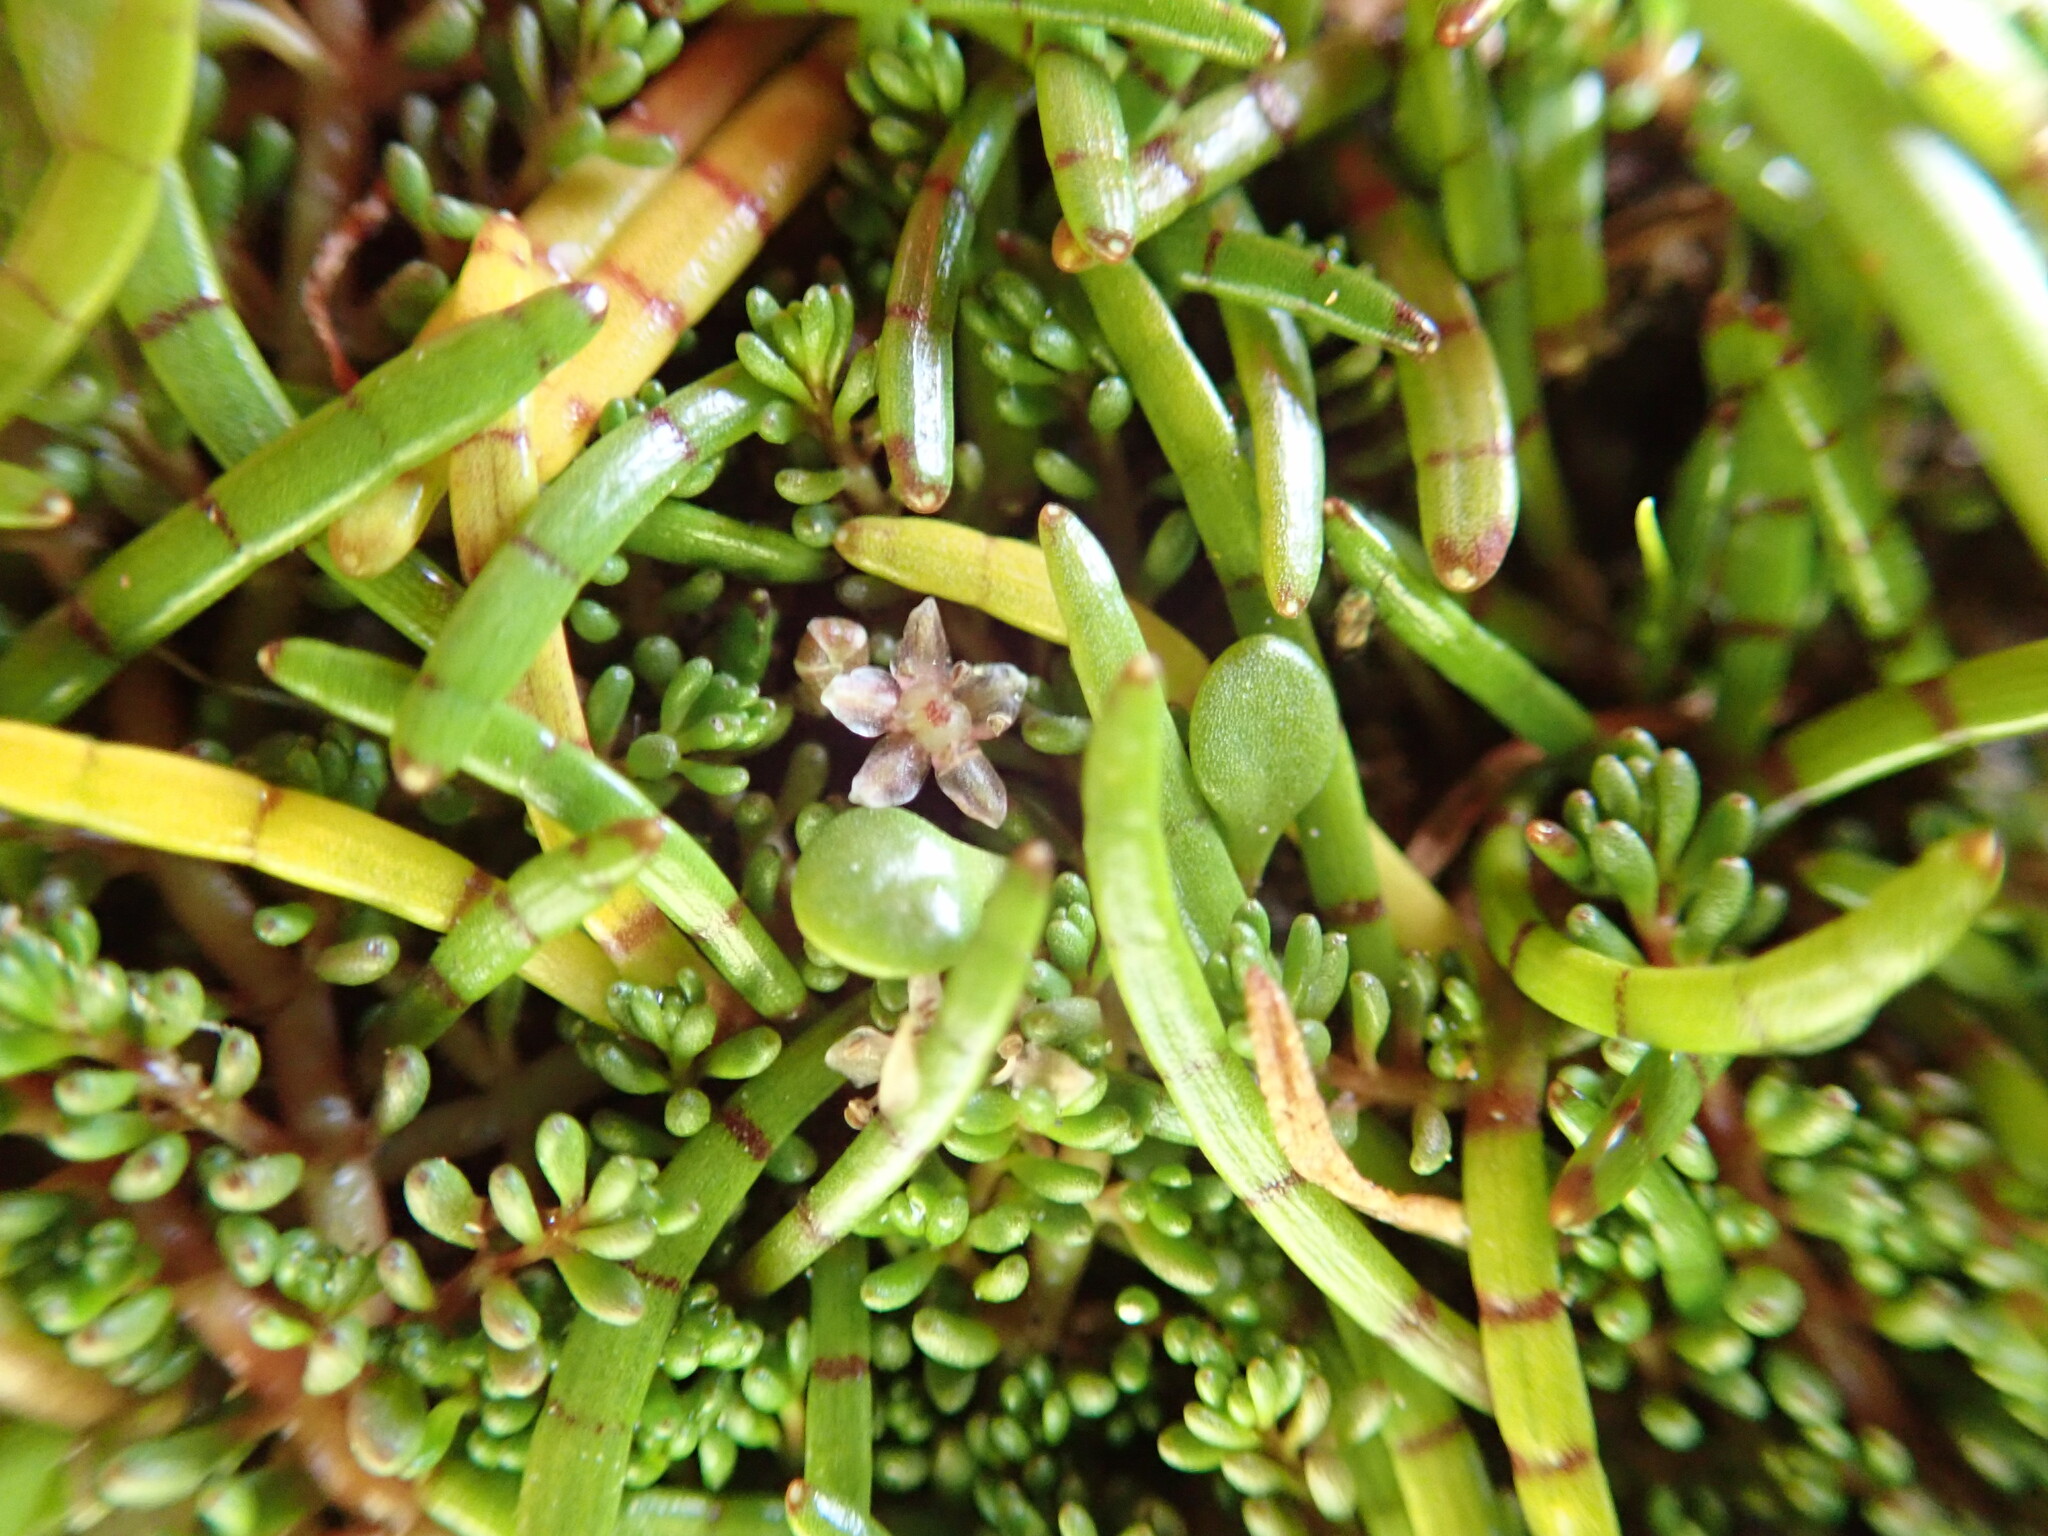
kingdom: Plantae
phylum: Tracheophyta
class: Magnoliopsida
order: Apiales
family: Apiaceae
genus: Lilaeopsis
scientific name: Lilaeopsis novae-zelandiae
